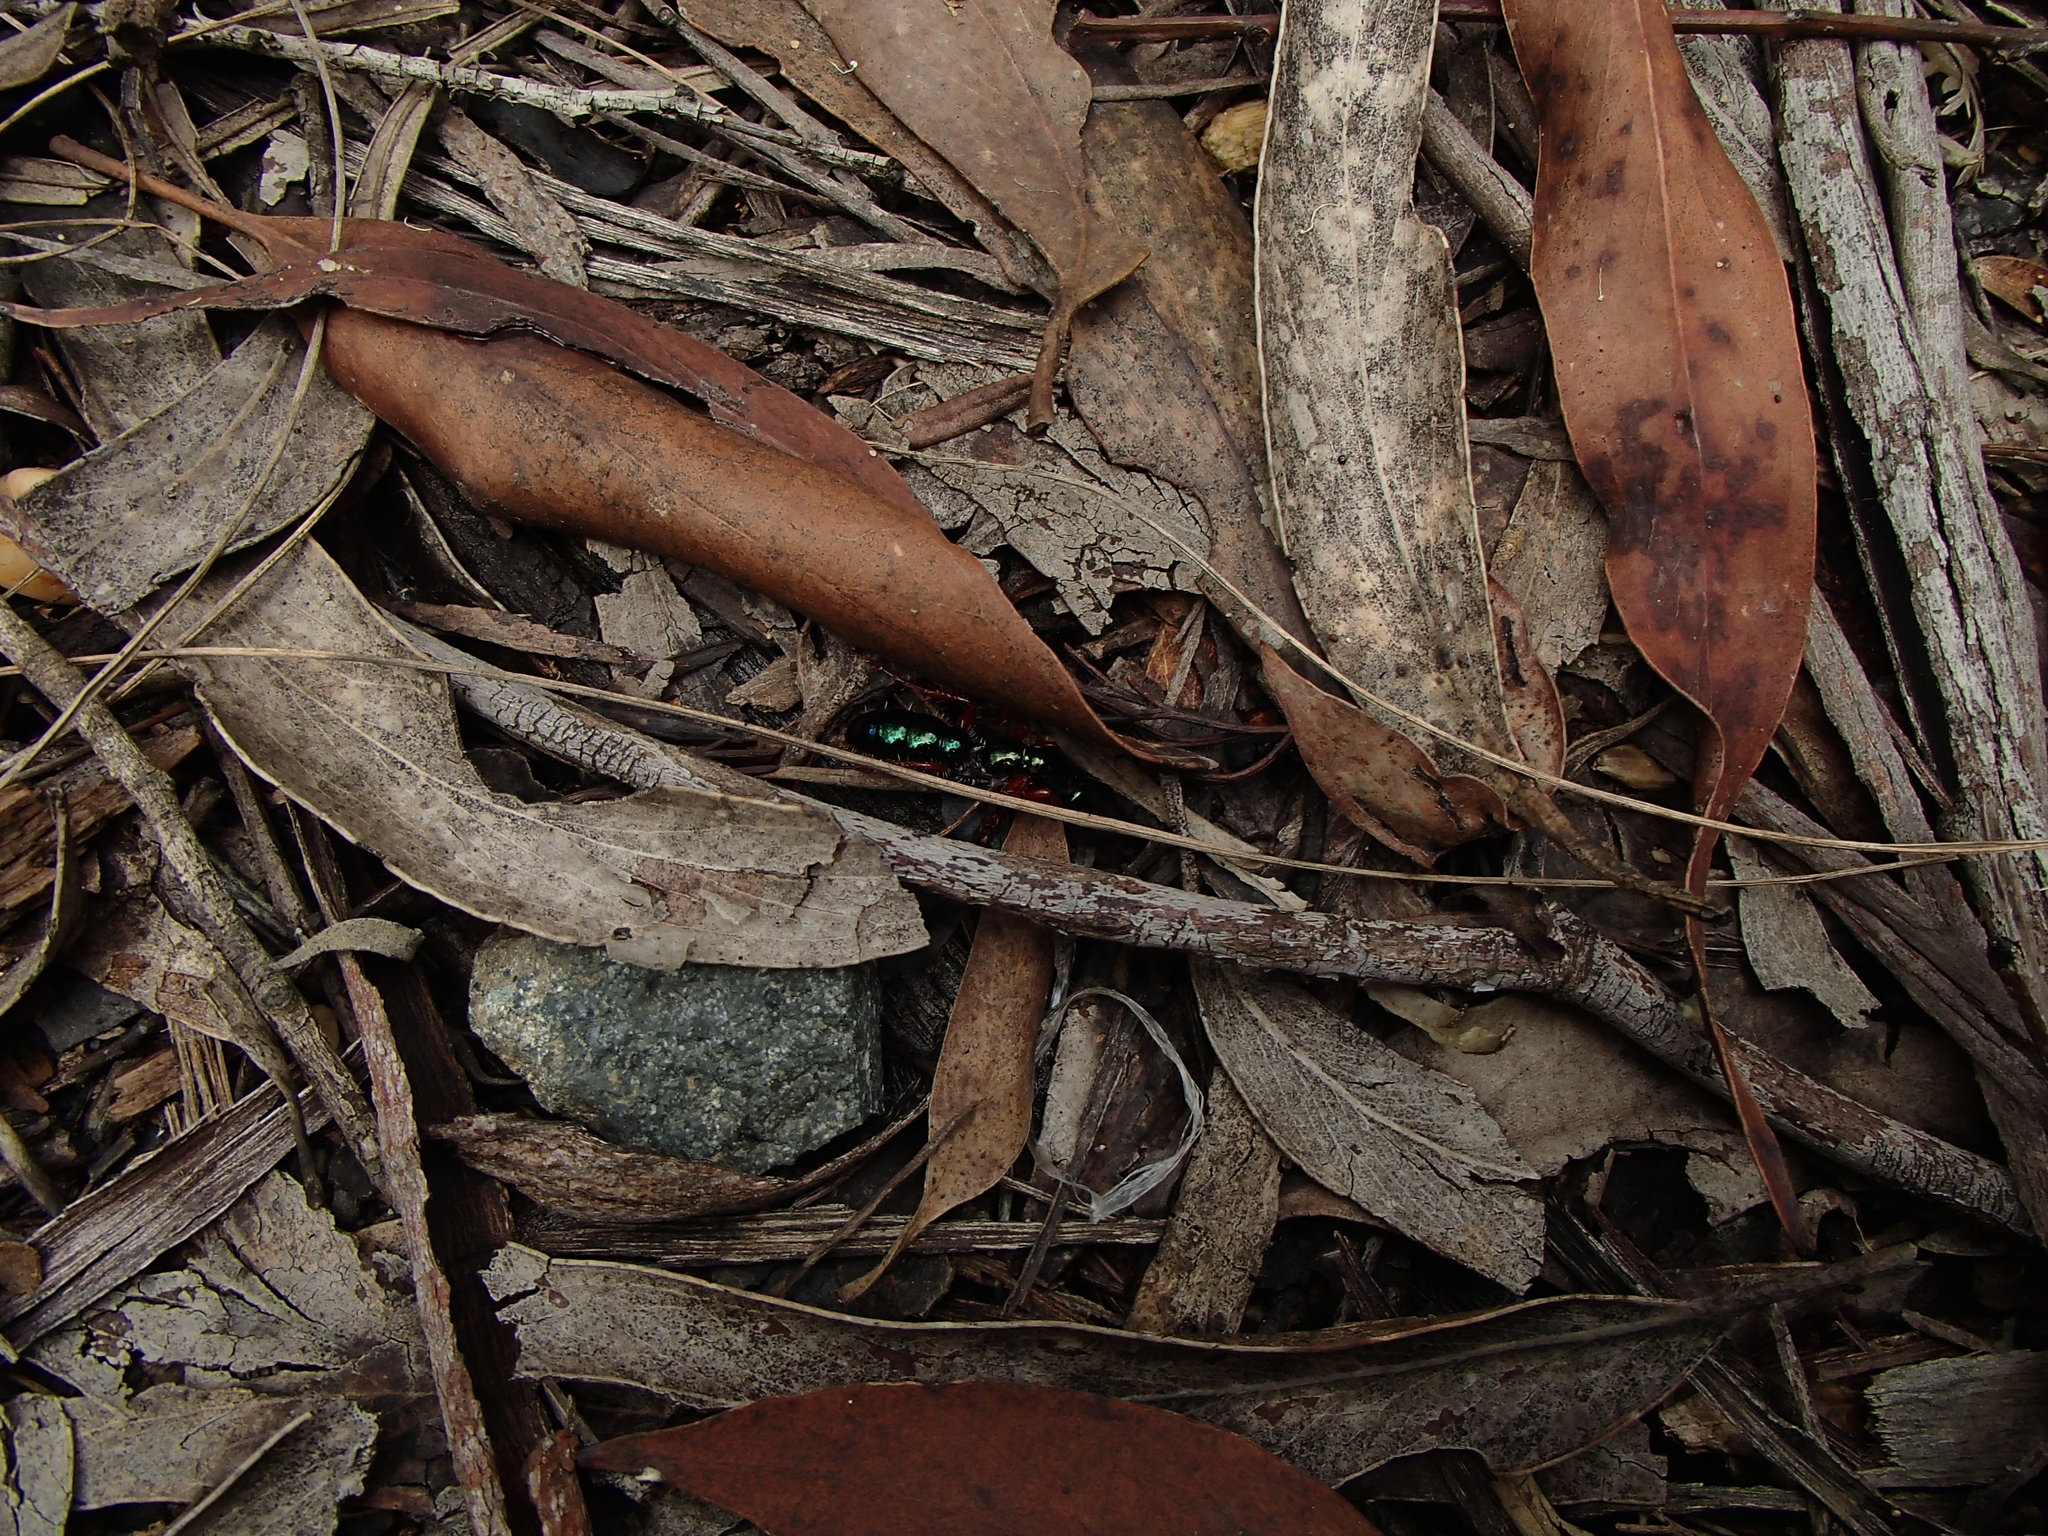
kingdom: Animalia
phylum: Arthropoda
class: Insecta
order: Hymenoptera
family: Tiphiidae
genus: Diamma
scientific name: Diamma
